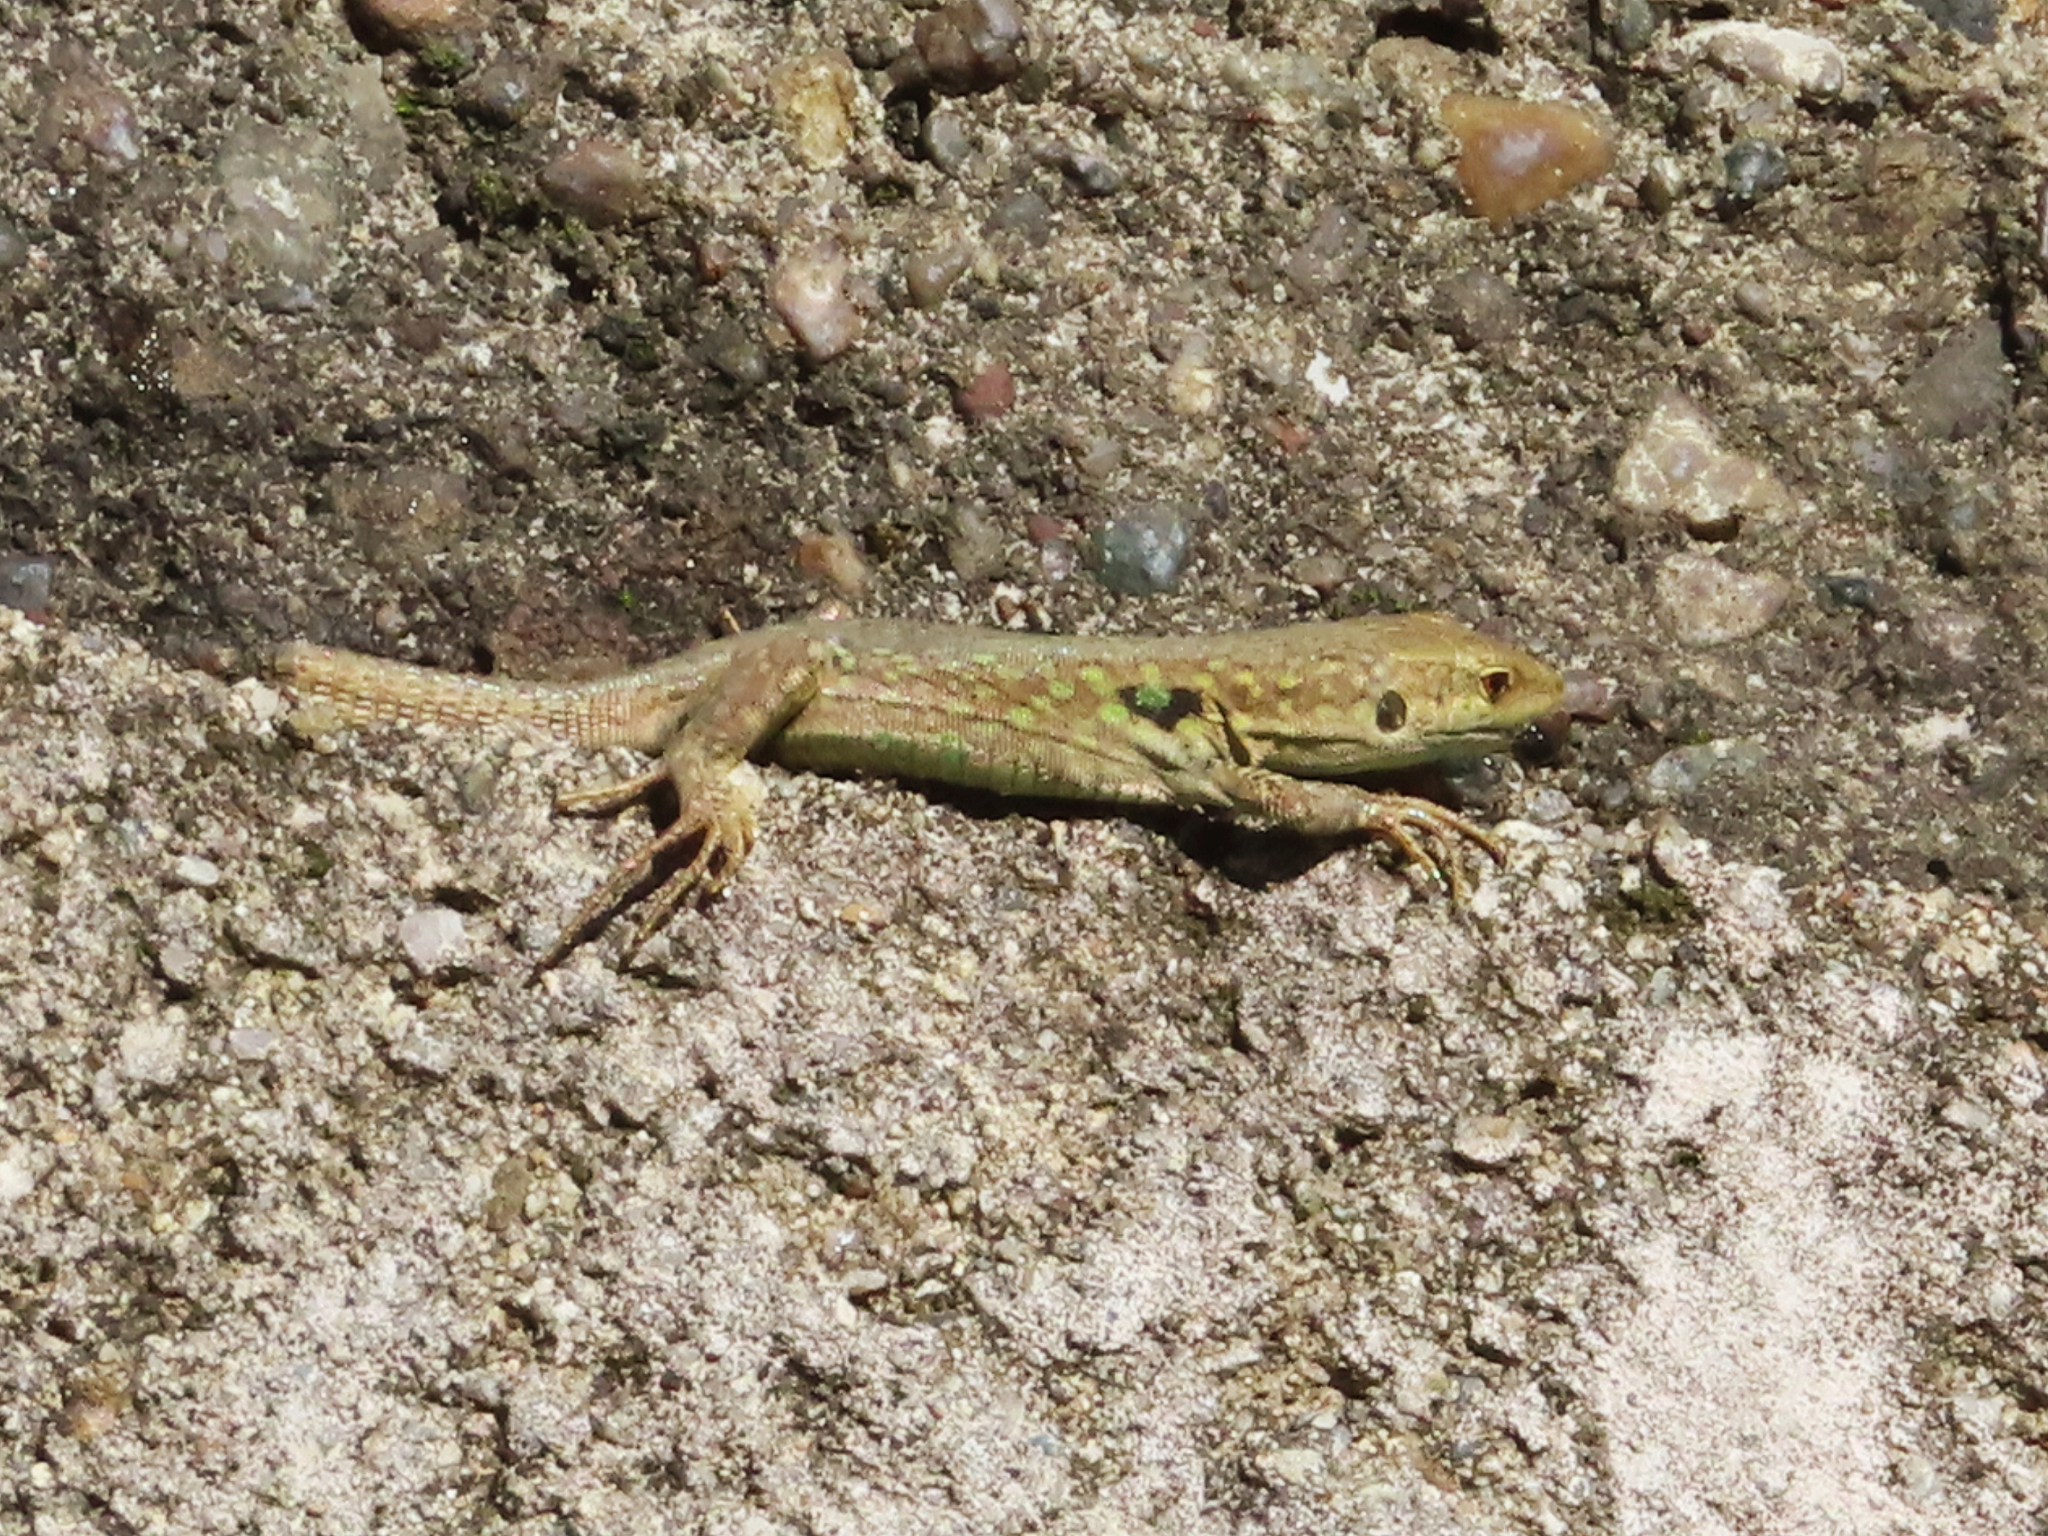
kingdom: Animalia
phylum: Chordata
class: Squamata
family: Lacertidae
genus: Podarcis
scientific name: Podarcis siculus
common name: Italian wall lizard
